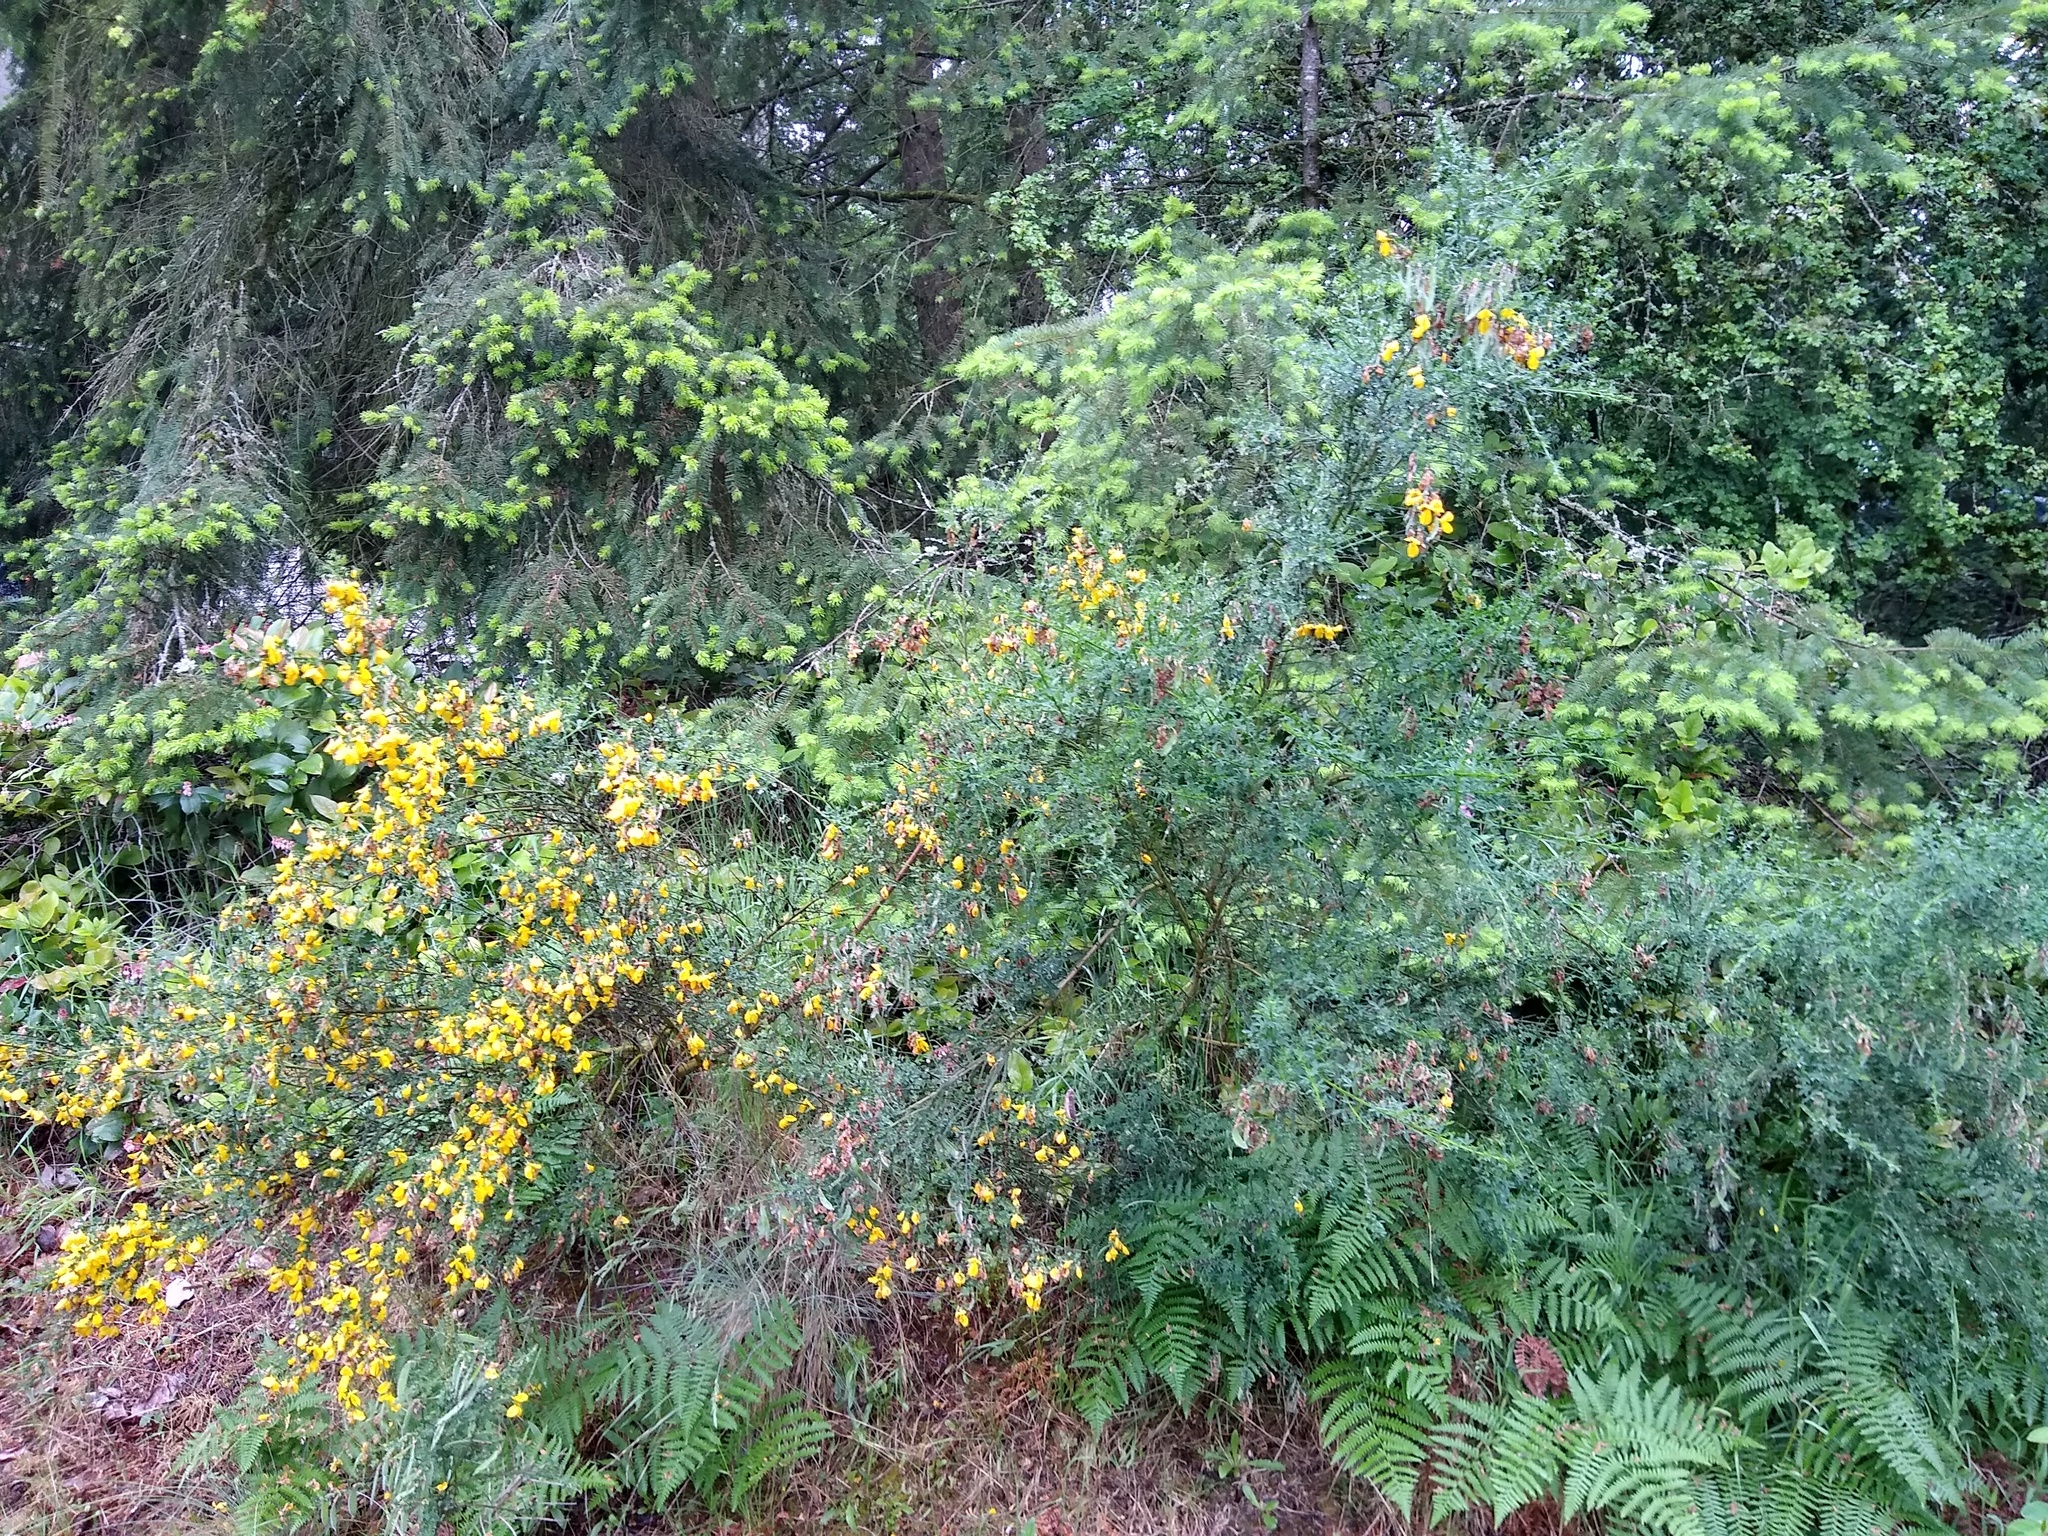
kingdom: Plantae
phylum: Tracheophyta
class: Magnoliopsida
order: Fabales
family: Fabaceae
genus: Cytisus
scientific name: Cytisus scoparius
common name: Scotch broom
